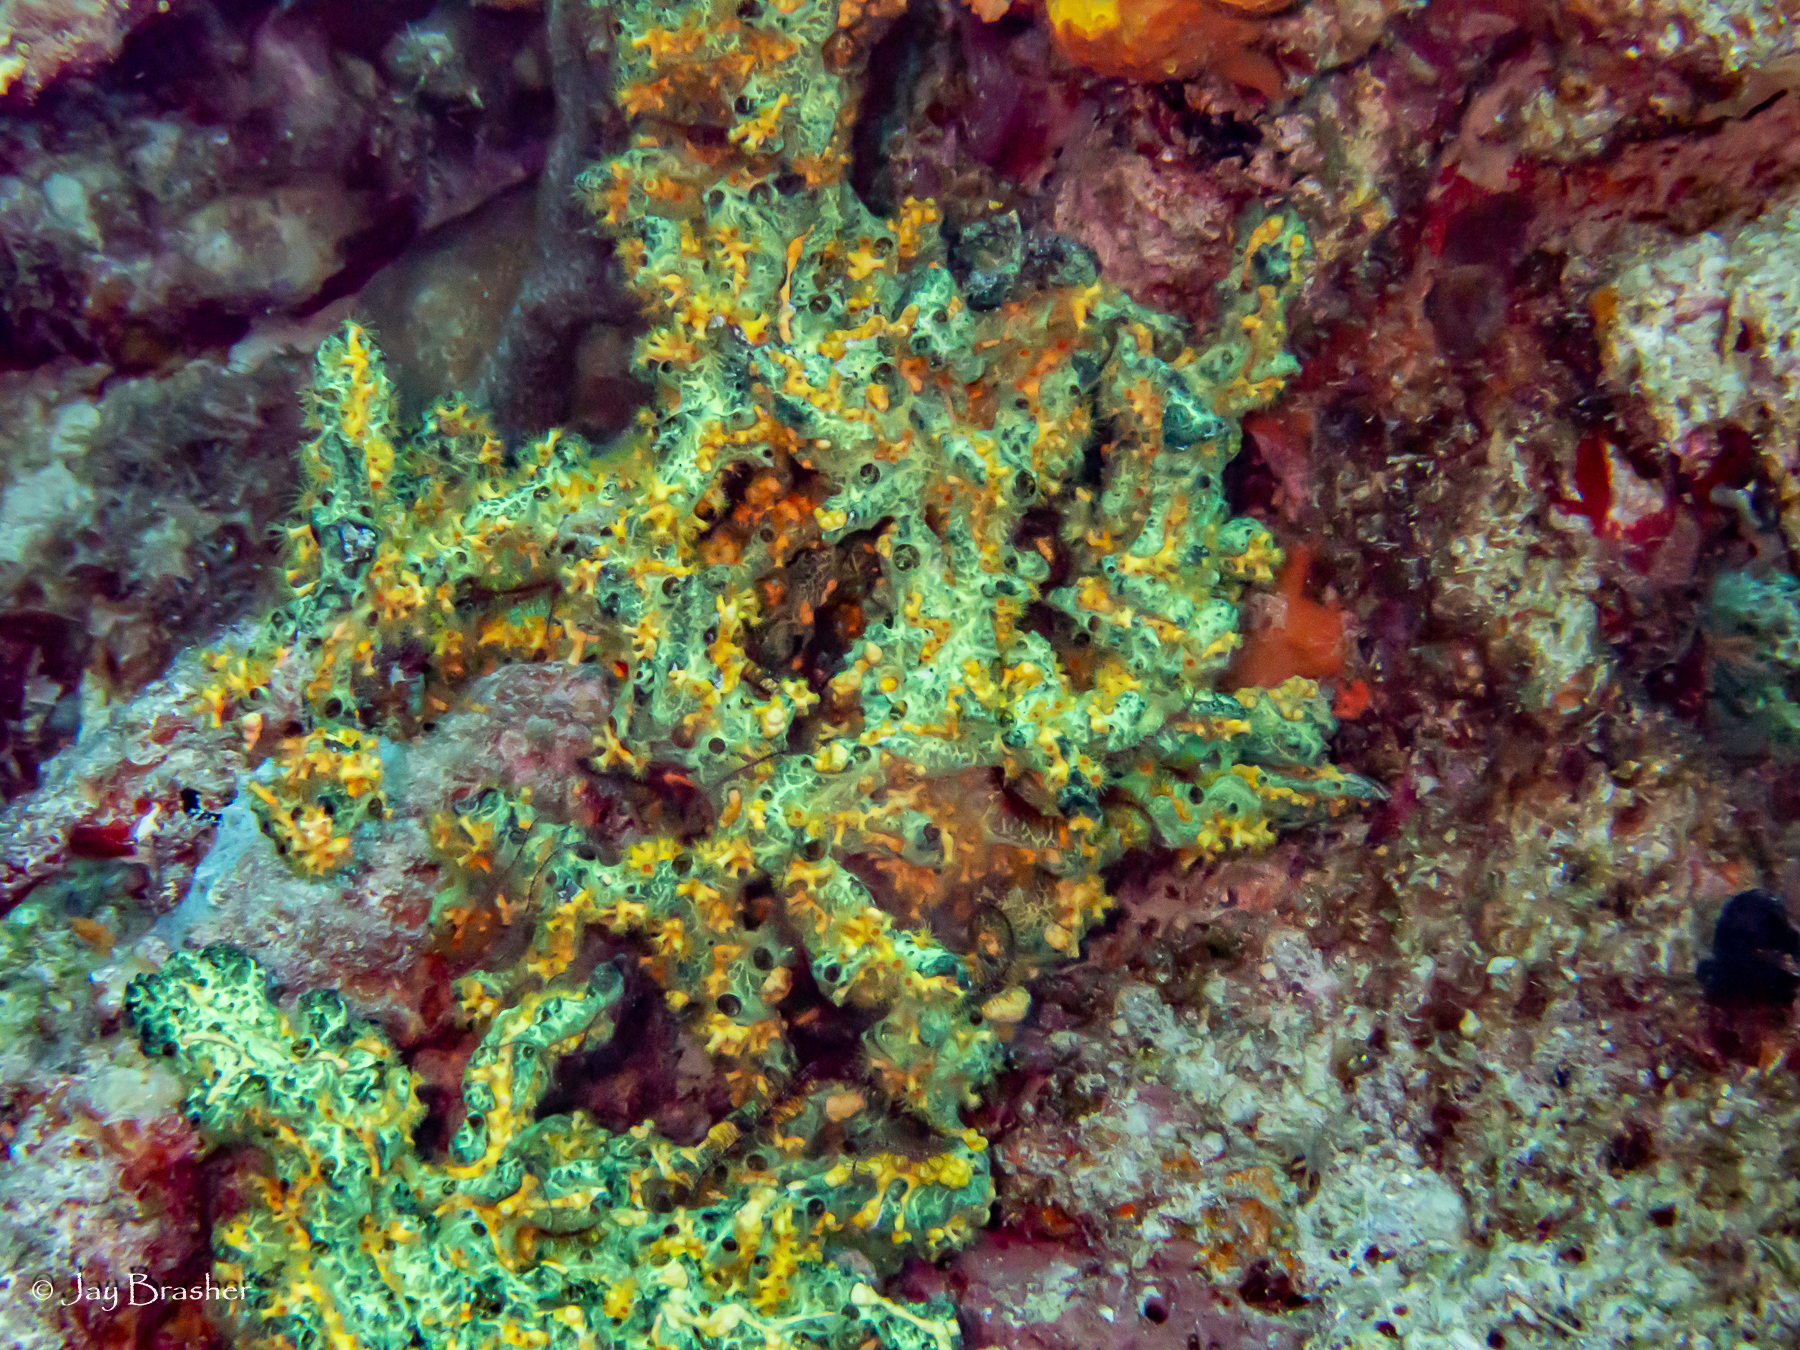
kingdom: Animalia
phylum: Porifera
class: Demospongiae
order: Poecilosclerida
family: Iotrochotidae
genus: Iotrochota
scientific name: Iotrochota birotulata
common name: Purple bleeding sponge
